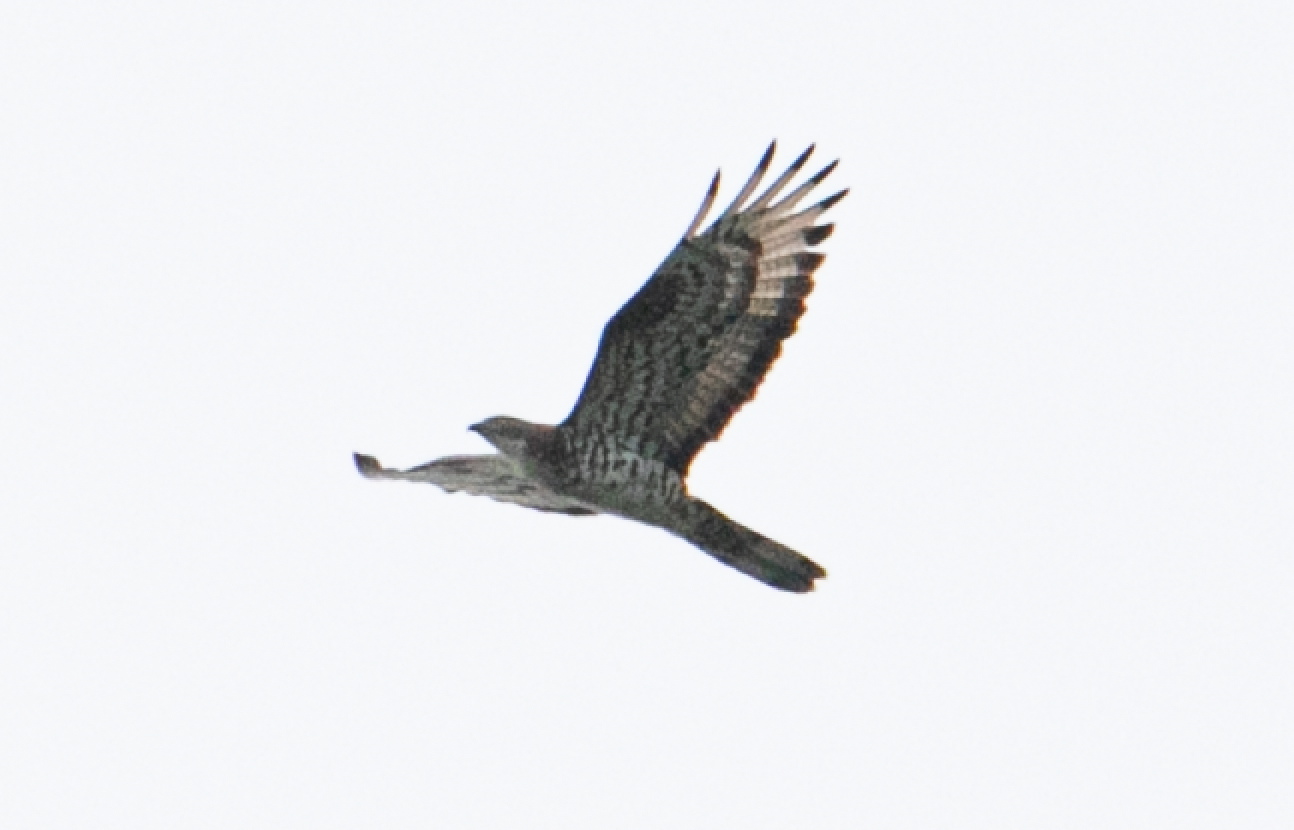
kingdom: Animalia
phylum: Chordata
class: Aves
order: Accipitriformes
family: Accipitridae
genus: Pernis
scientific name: Pernis apivorus
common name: European honey buzzard
